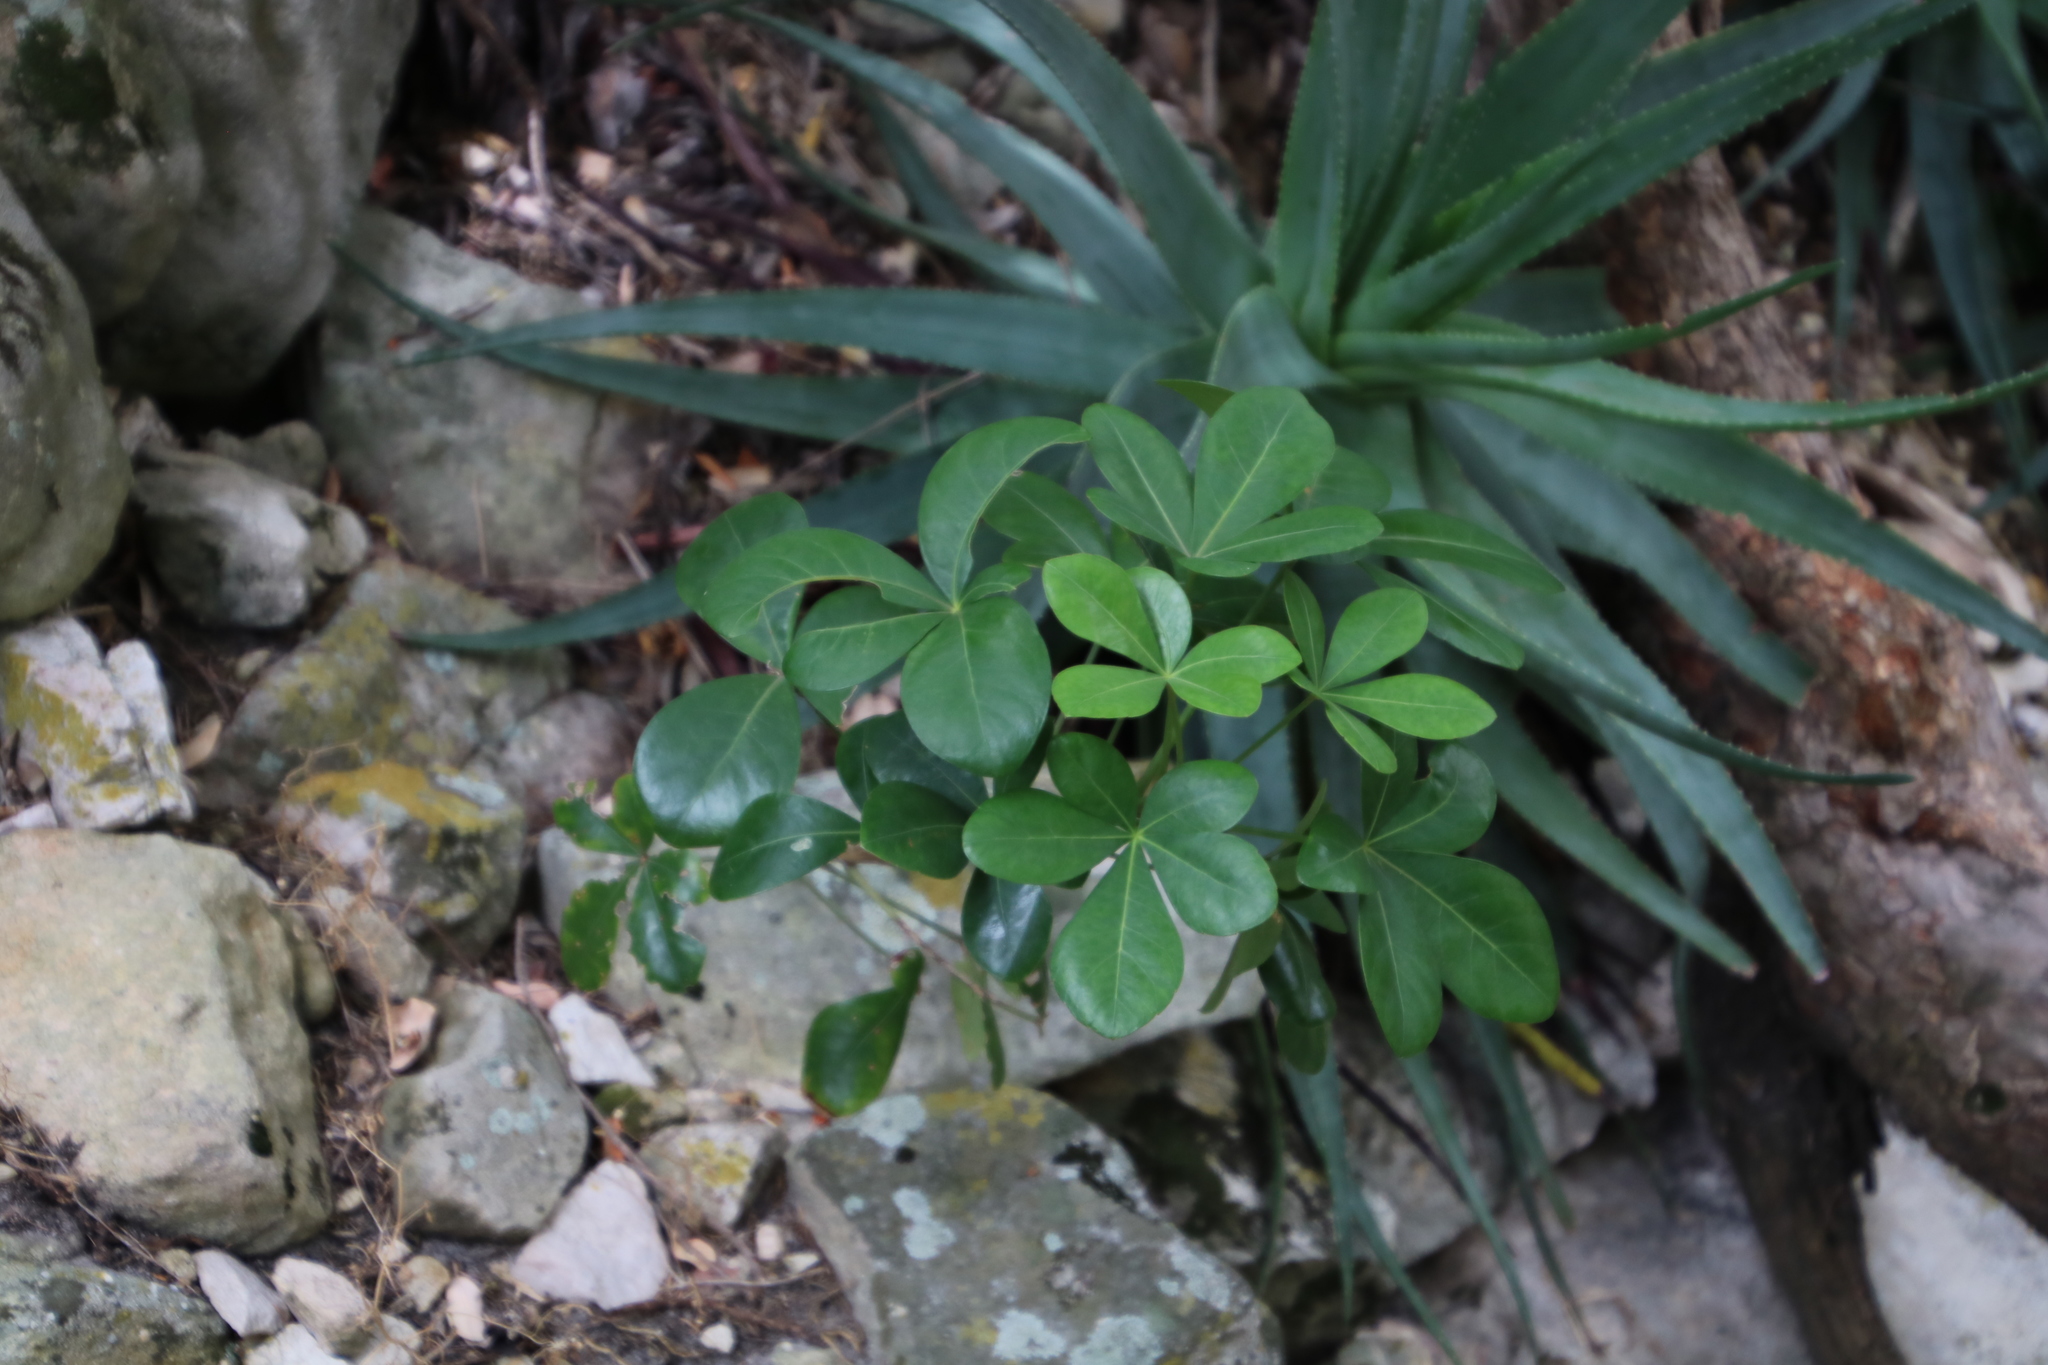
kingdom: Plantae
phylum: Tracheophyta
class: Magnoliopsida
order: Apiales
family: Araliaceae
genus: Cussonia
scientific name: Cussonia thyrsiflora
